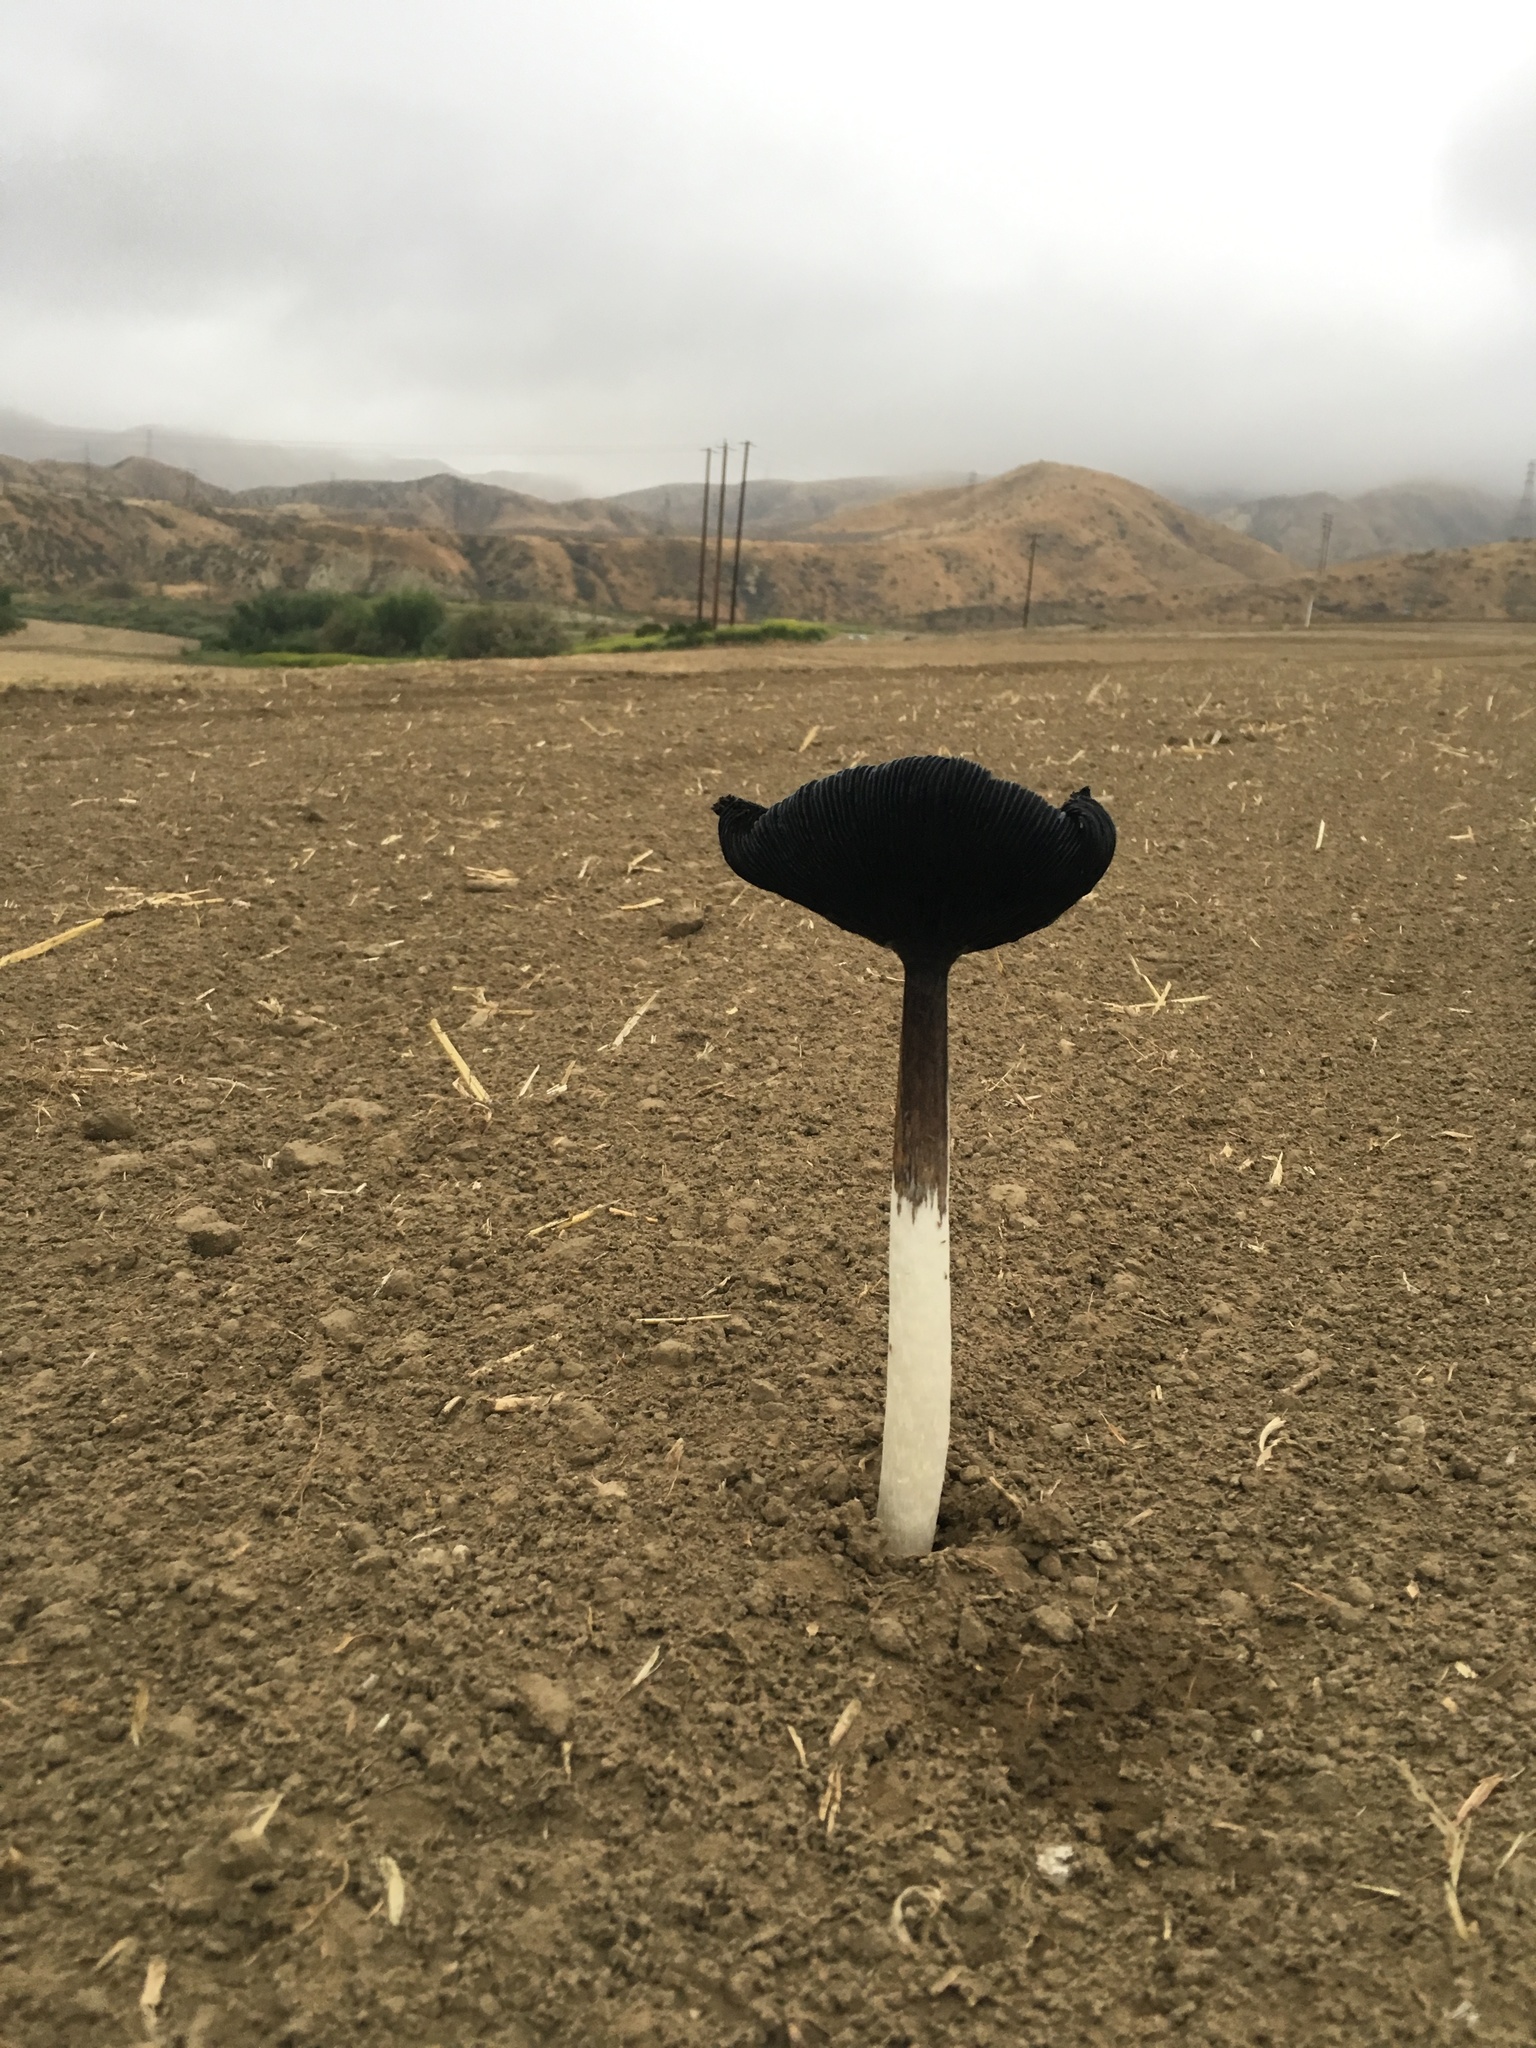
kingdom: Fungi
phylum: Basidiomycota
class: Agaricomycetes
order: Agaricales
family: Agaricaceae
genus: Coprinus
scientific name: Coprinus calyptratus
